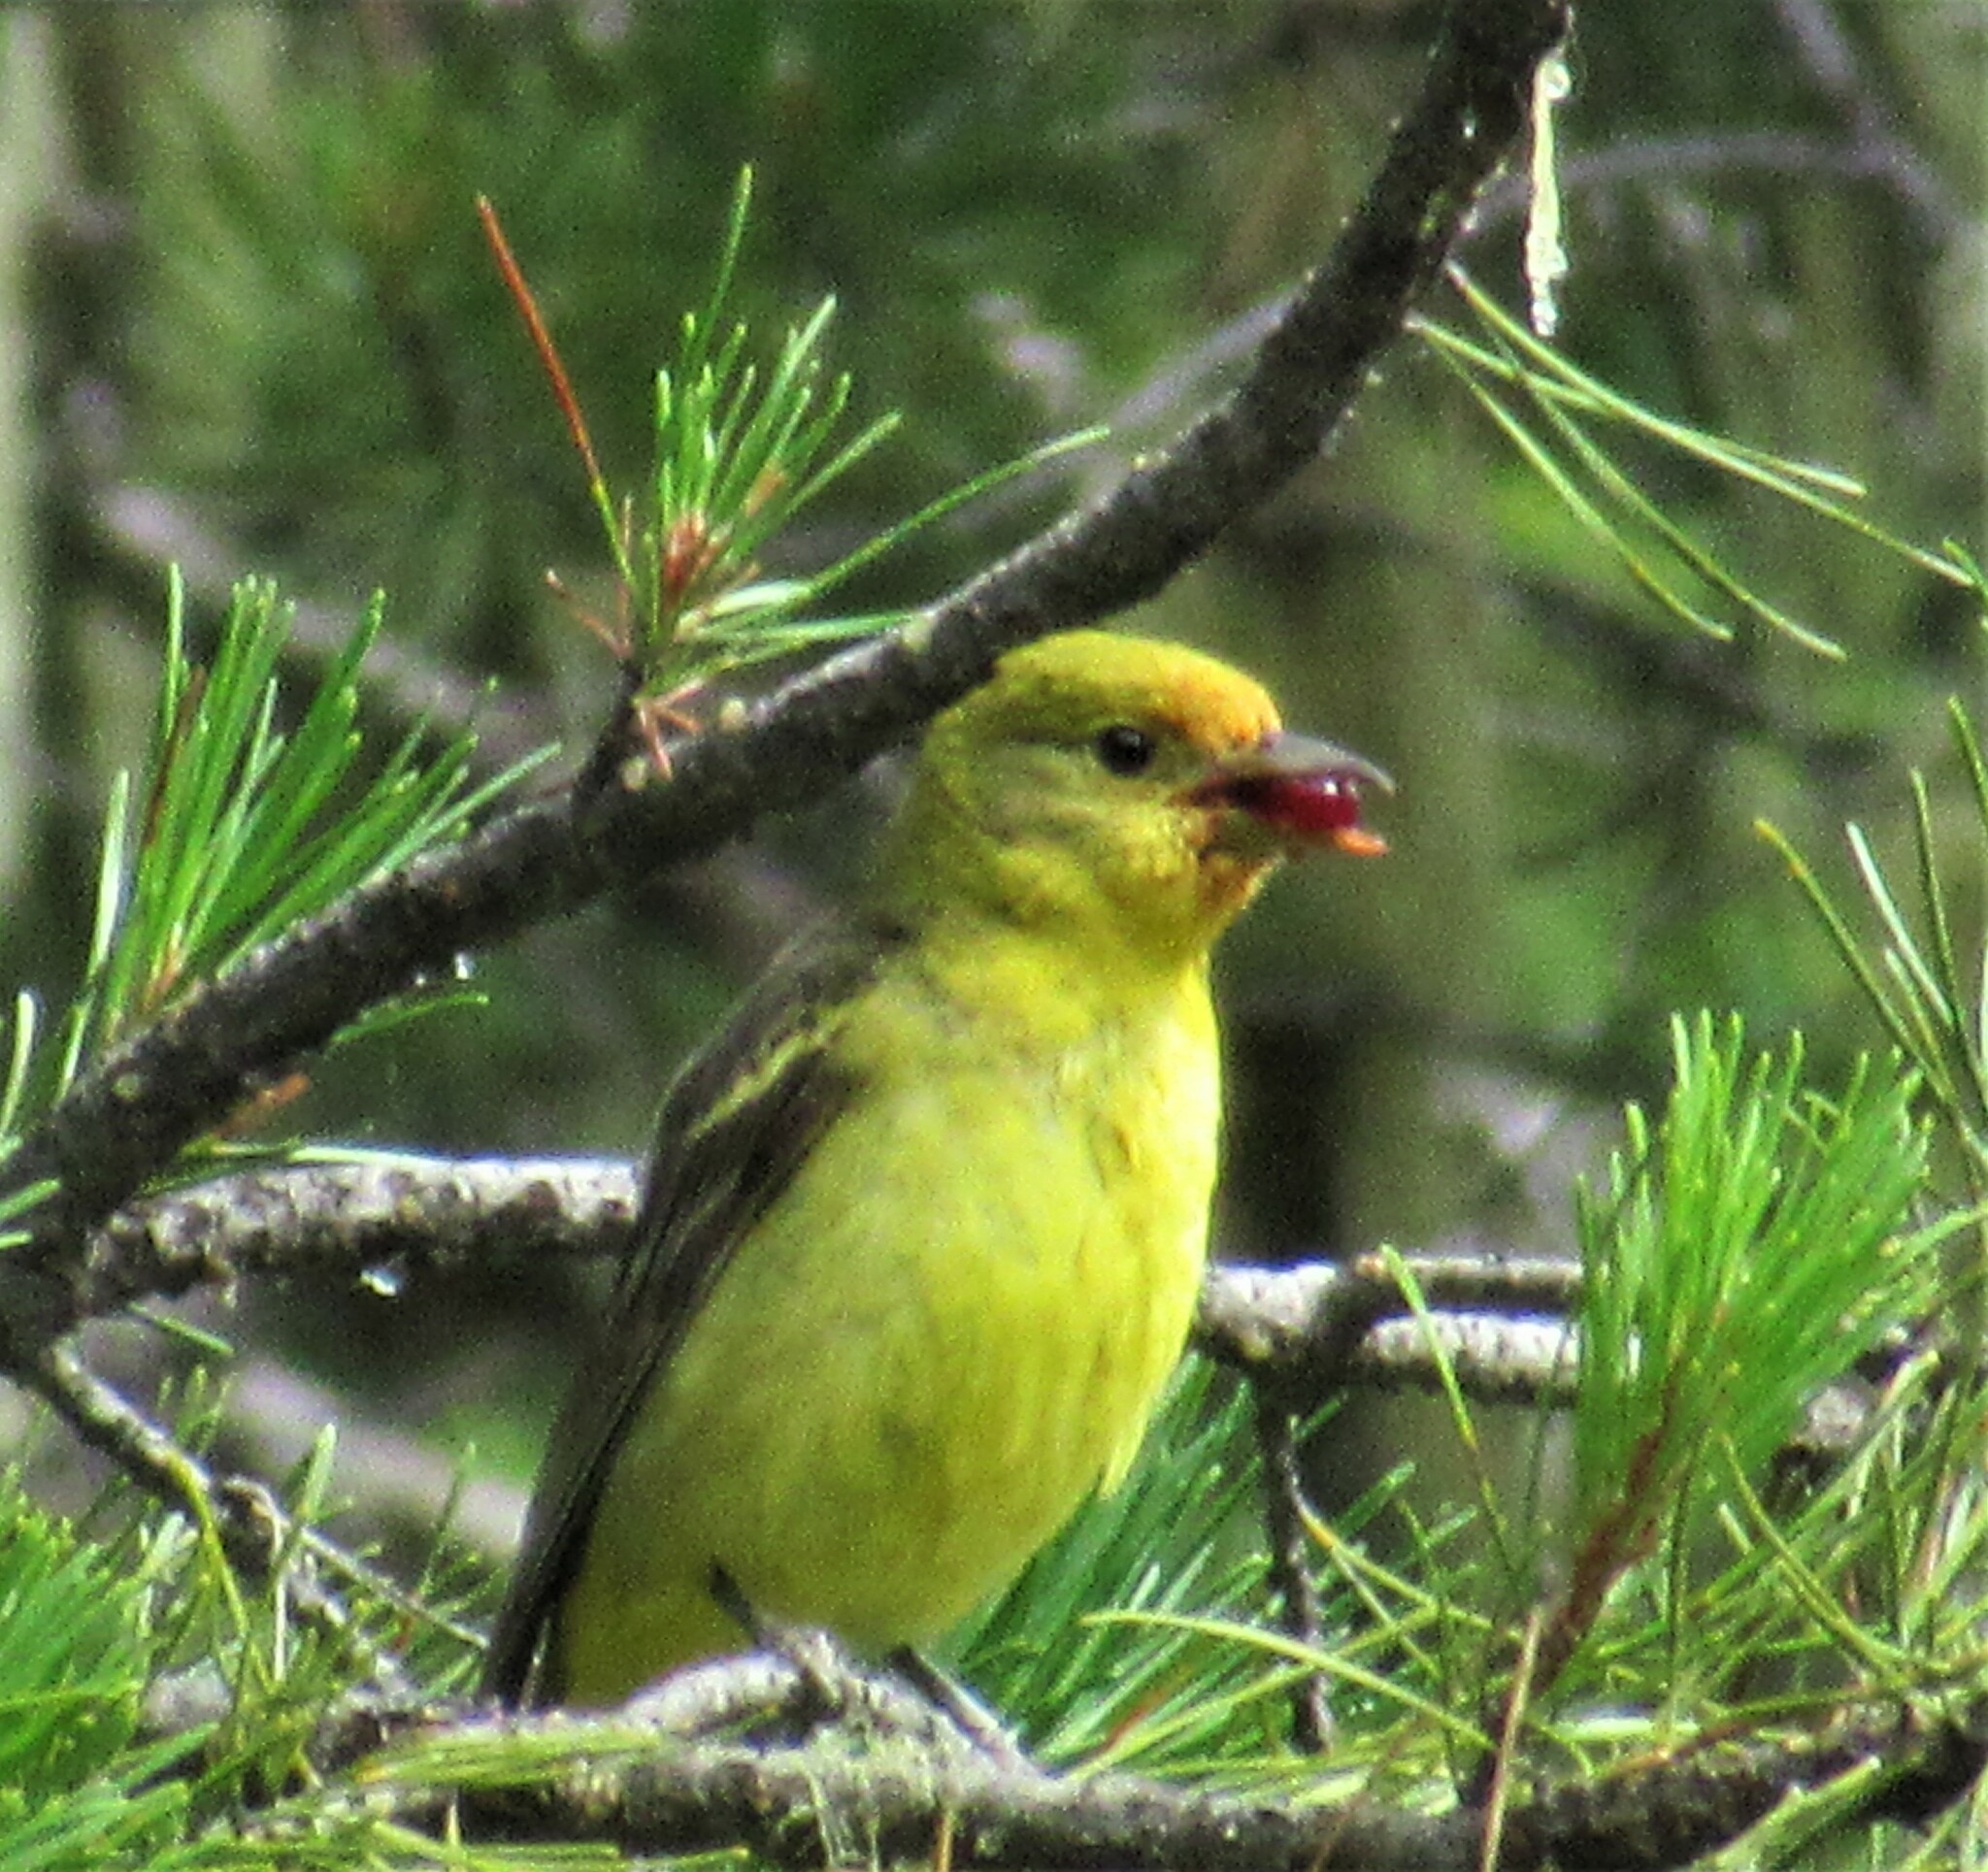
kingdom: Animalia
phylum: Chordata
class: Aves
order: Passeriformes
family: Cardinalidae
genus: Piranga
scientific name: Piranga ludoviciana
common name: Western tanager
